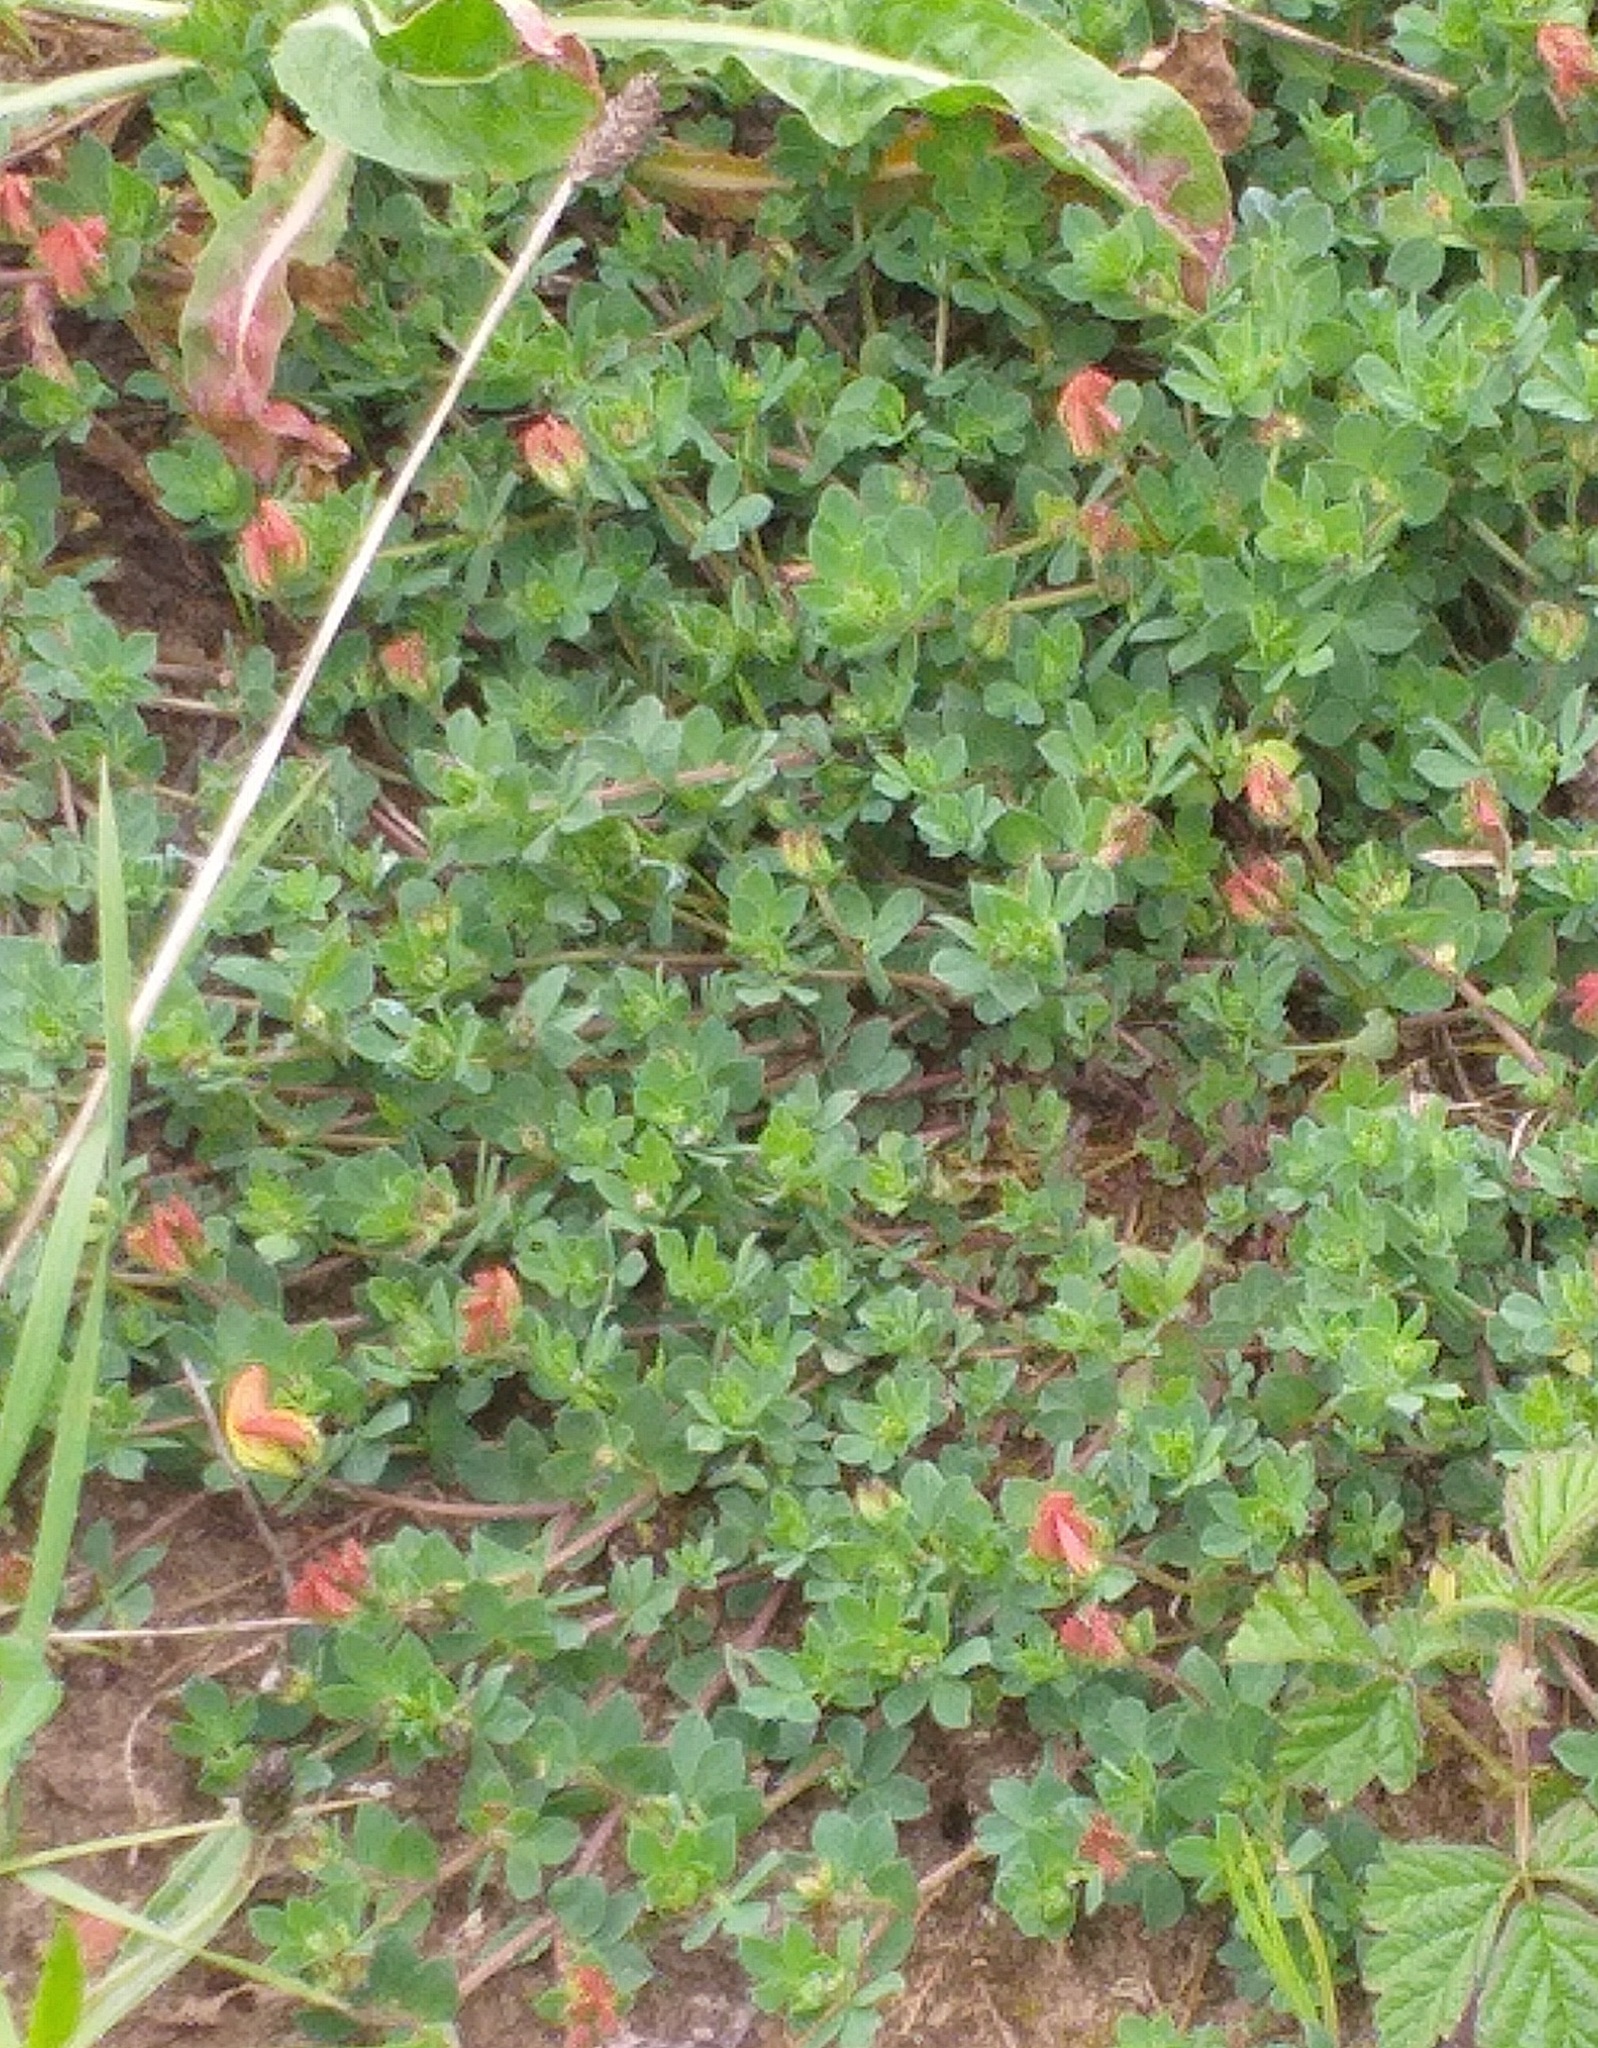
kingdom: Plantae
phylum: Tracheophyta
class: Magnoliopsida
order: Fabales
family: Fabaceae
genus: Lotus
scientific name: Lotus corniculatus
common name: Common bird's-foot-trefoil
